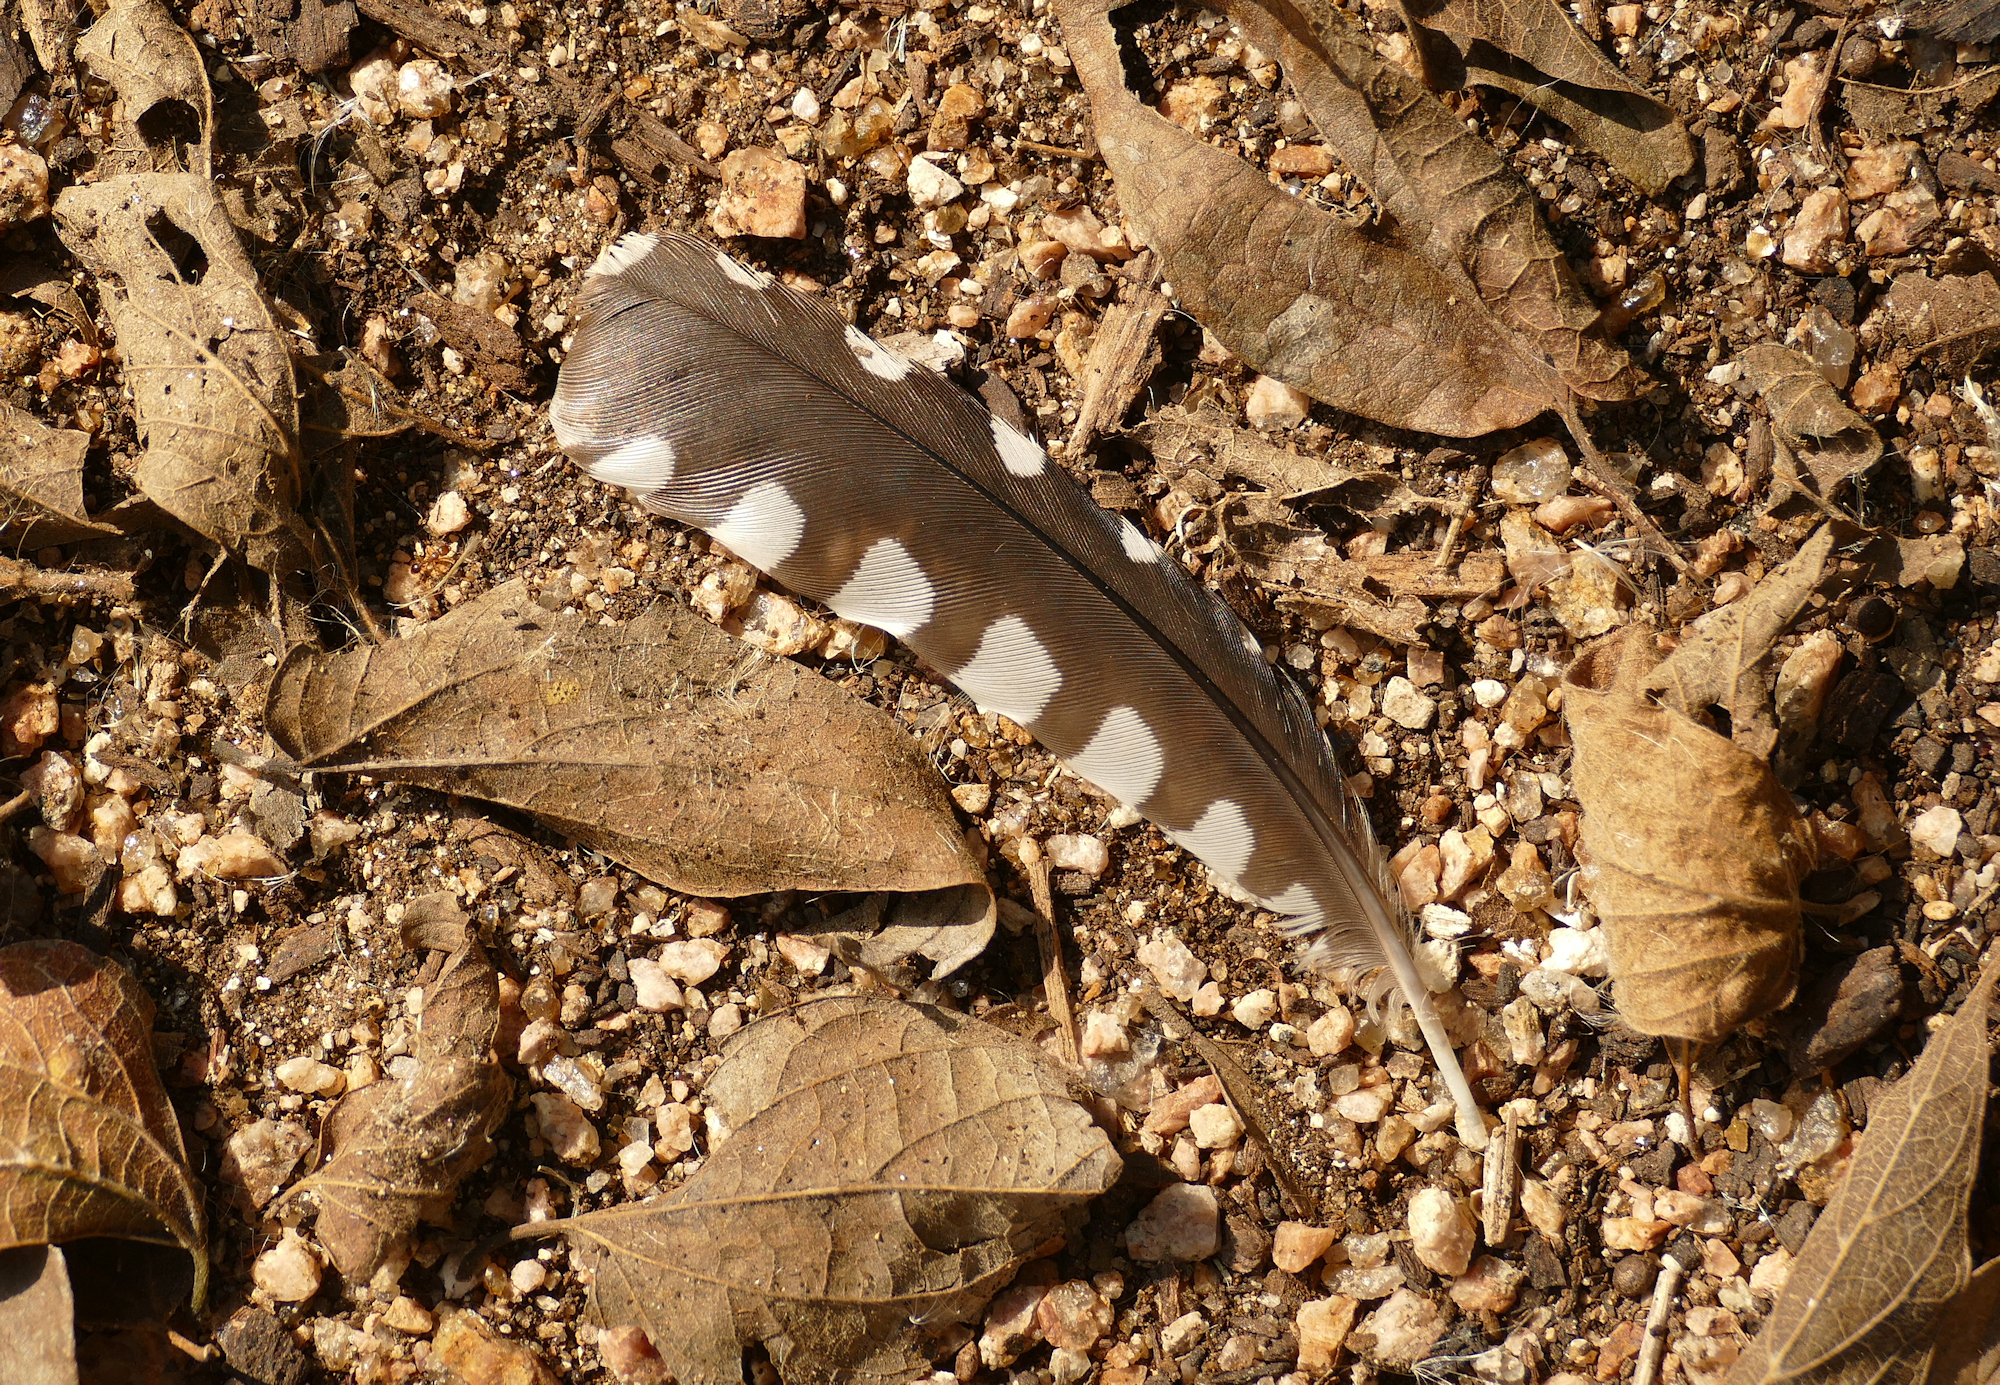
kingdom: Animalia
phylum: Chordata
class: Aves
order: Piciformes
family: Picidae
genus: Melanerpes
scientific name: Melanerpes carolinus
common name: Red-bellied woodpecker
